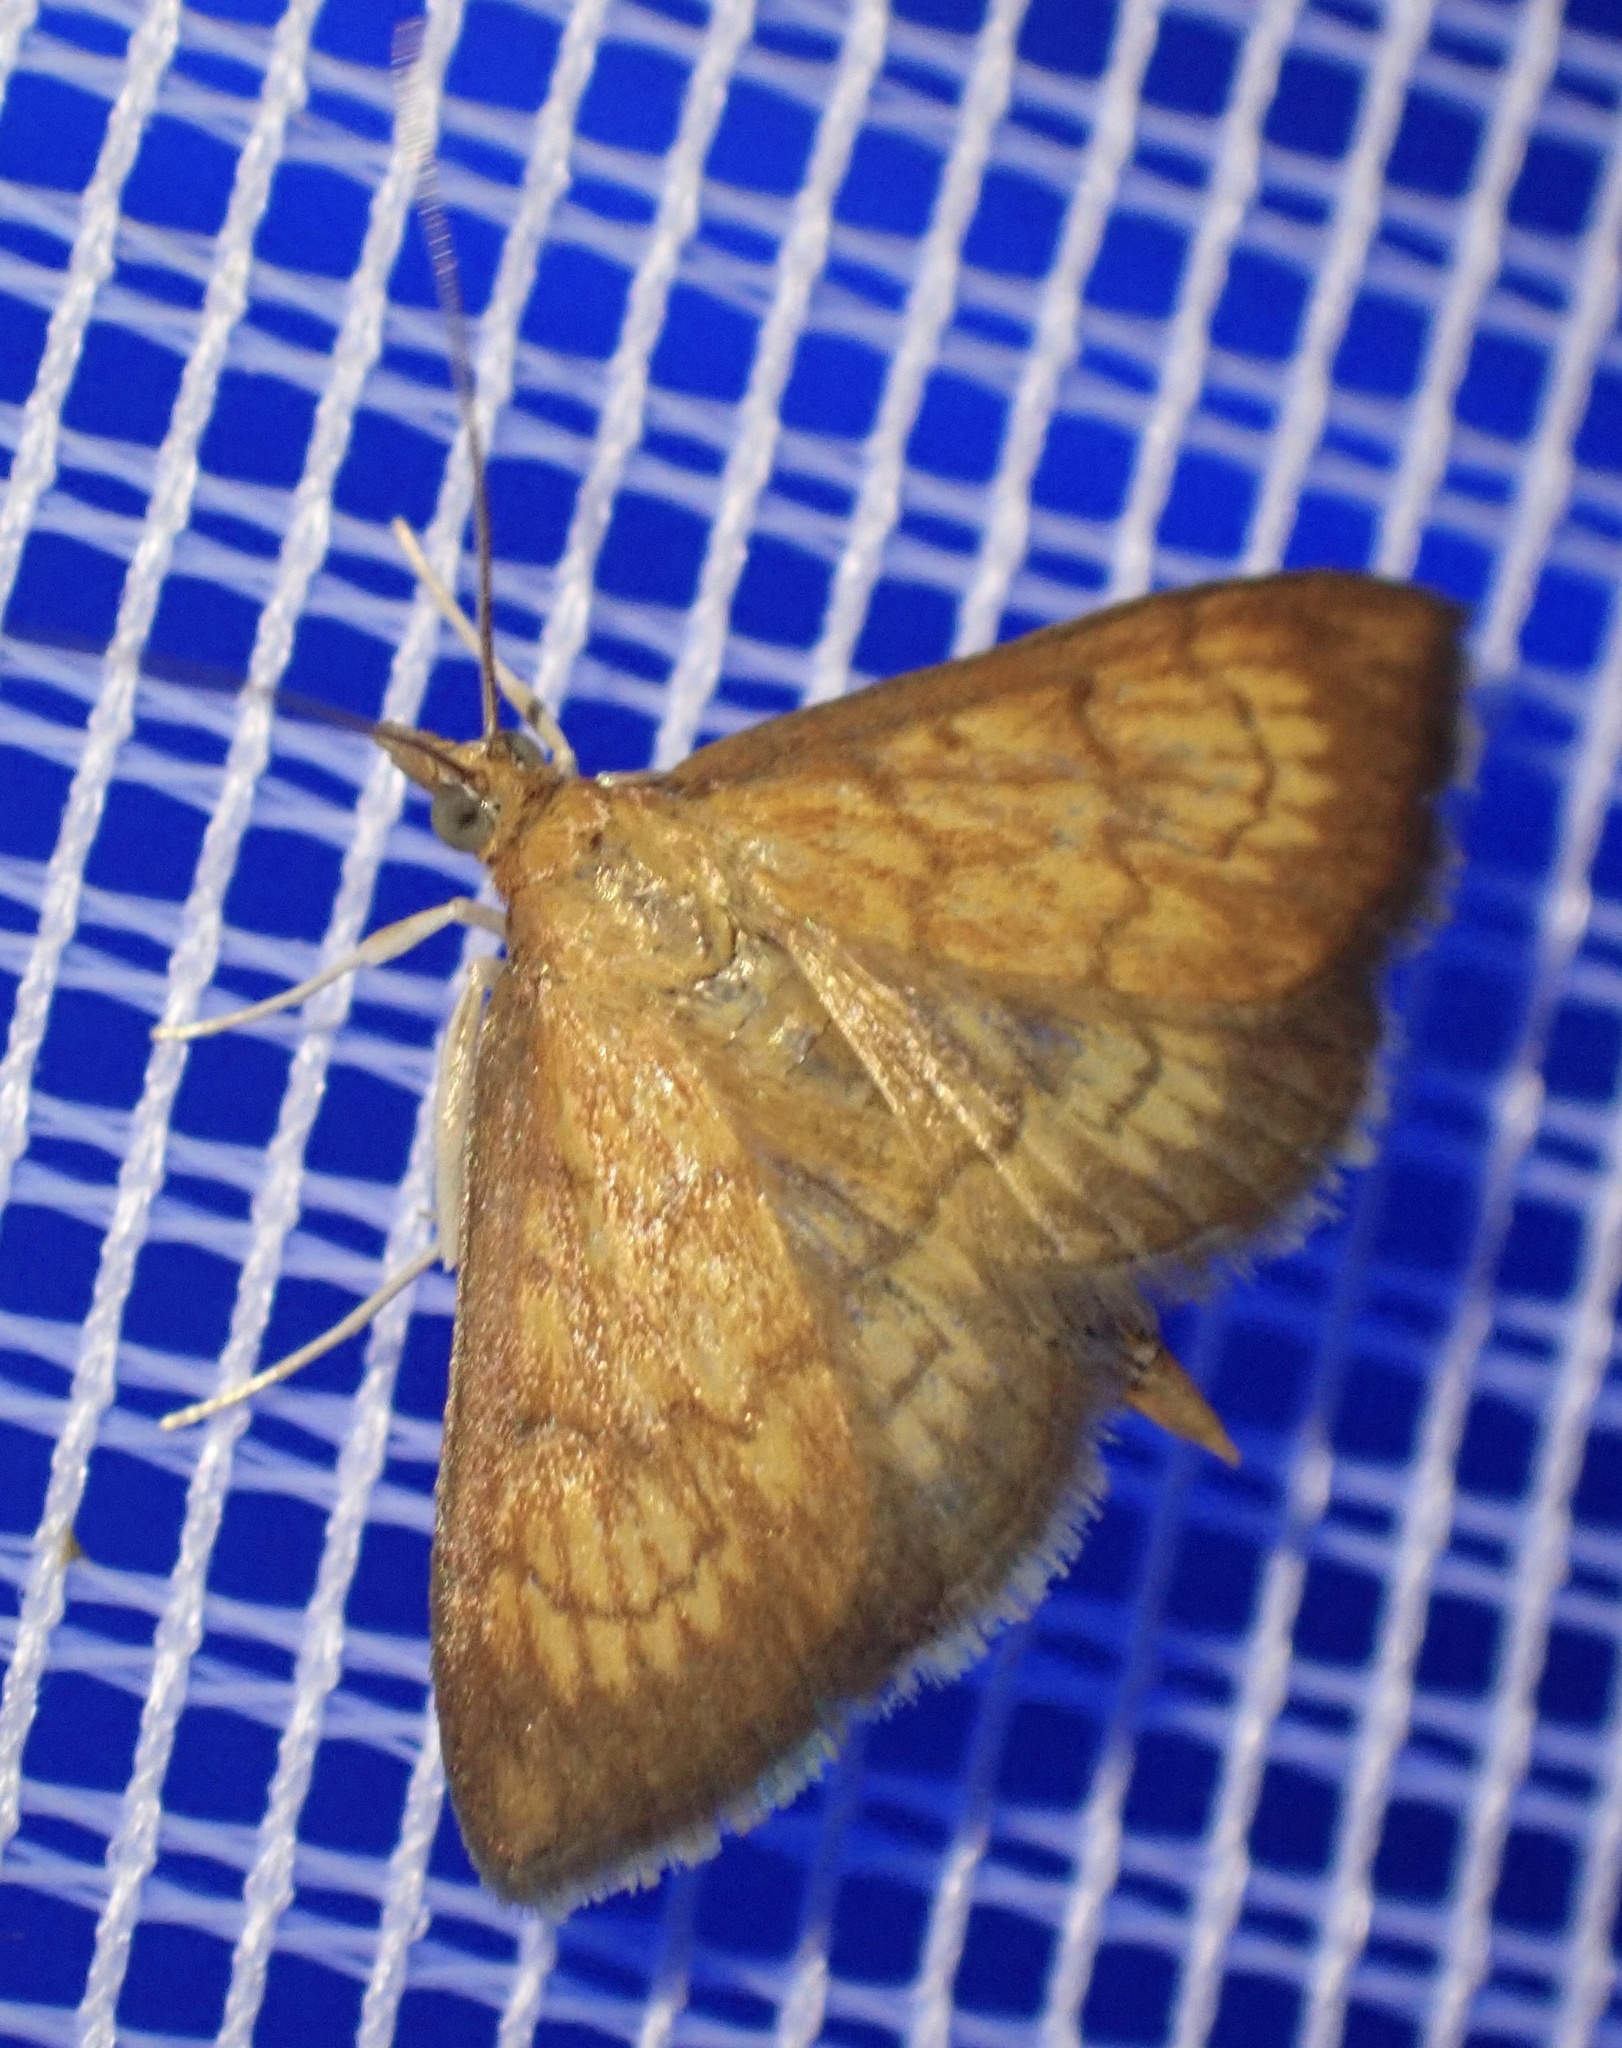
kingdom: Animalia
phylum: Arthropoda
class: Insecta
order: Lepidoptera
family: Crambidae
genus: Ecpyrrhorrhoe
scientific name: Ecpyrrhorrhoe rubiginalis
